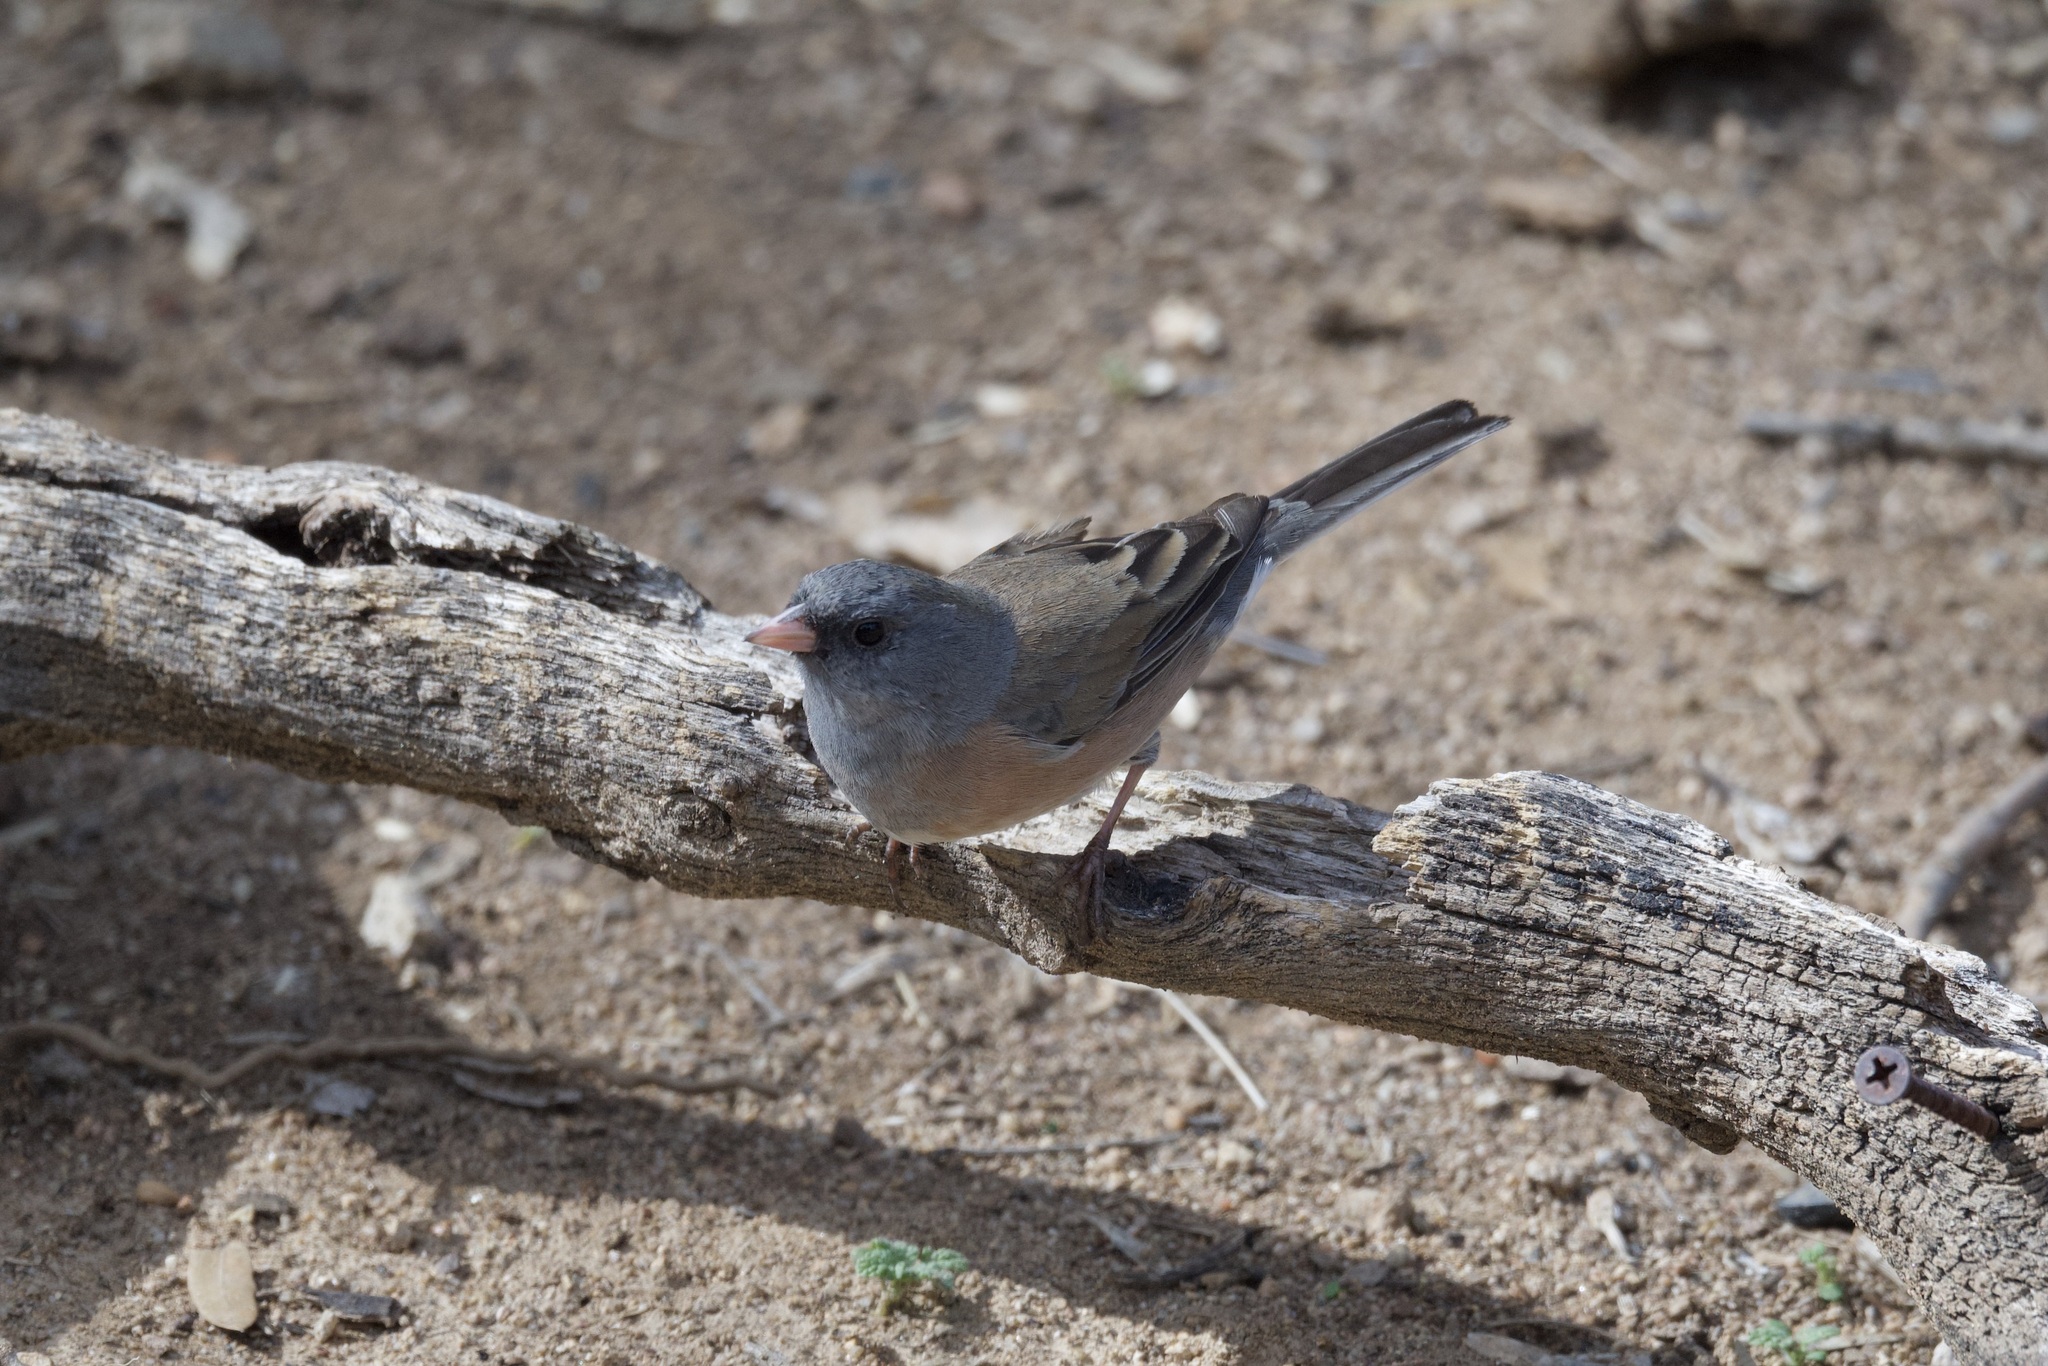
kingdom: Animalia
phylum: Chordata
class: Aves
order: Passeriformes
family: Passerellidae
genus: Junco
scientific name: Junco hyemalis
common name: Dark-eyed junco
